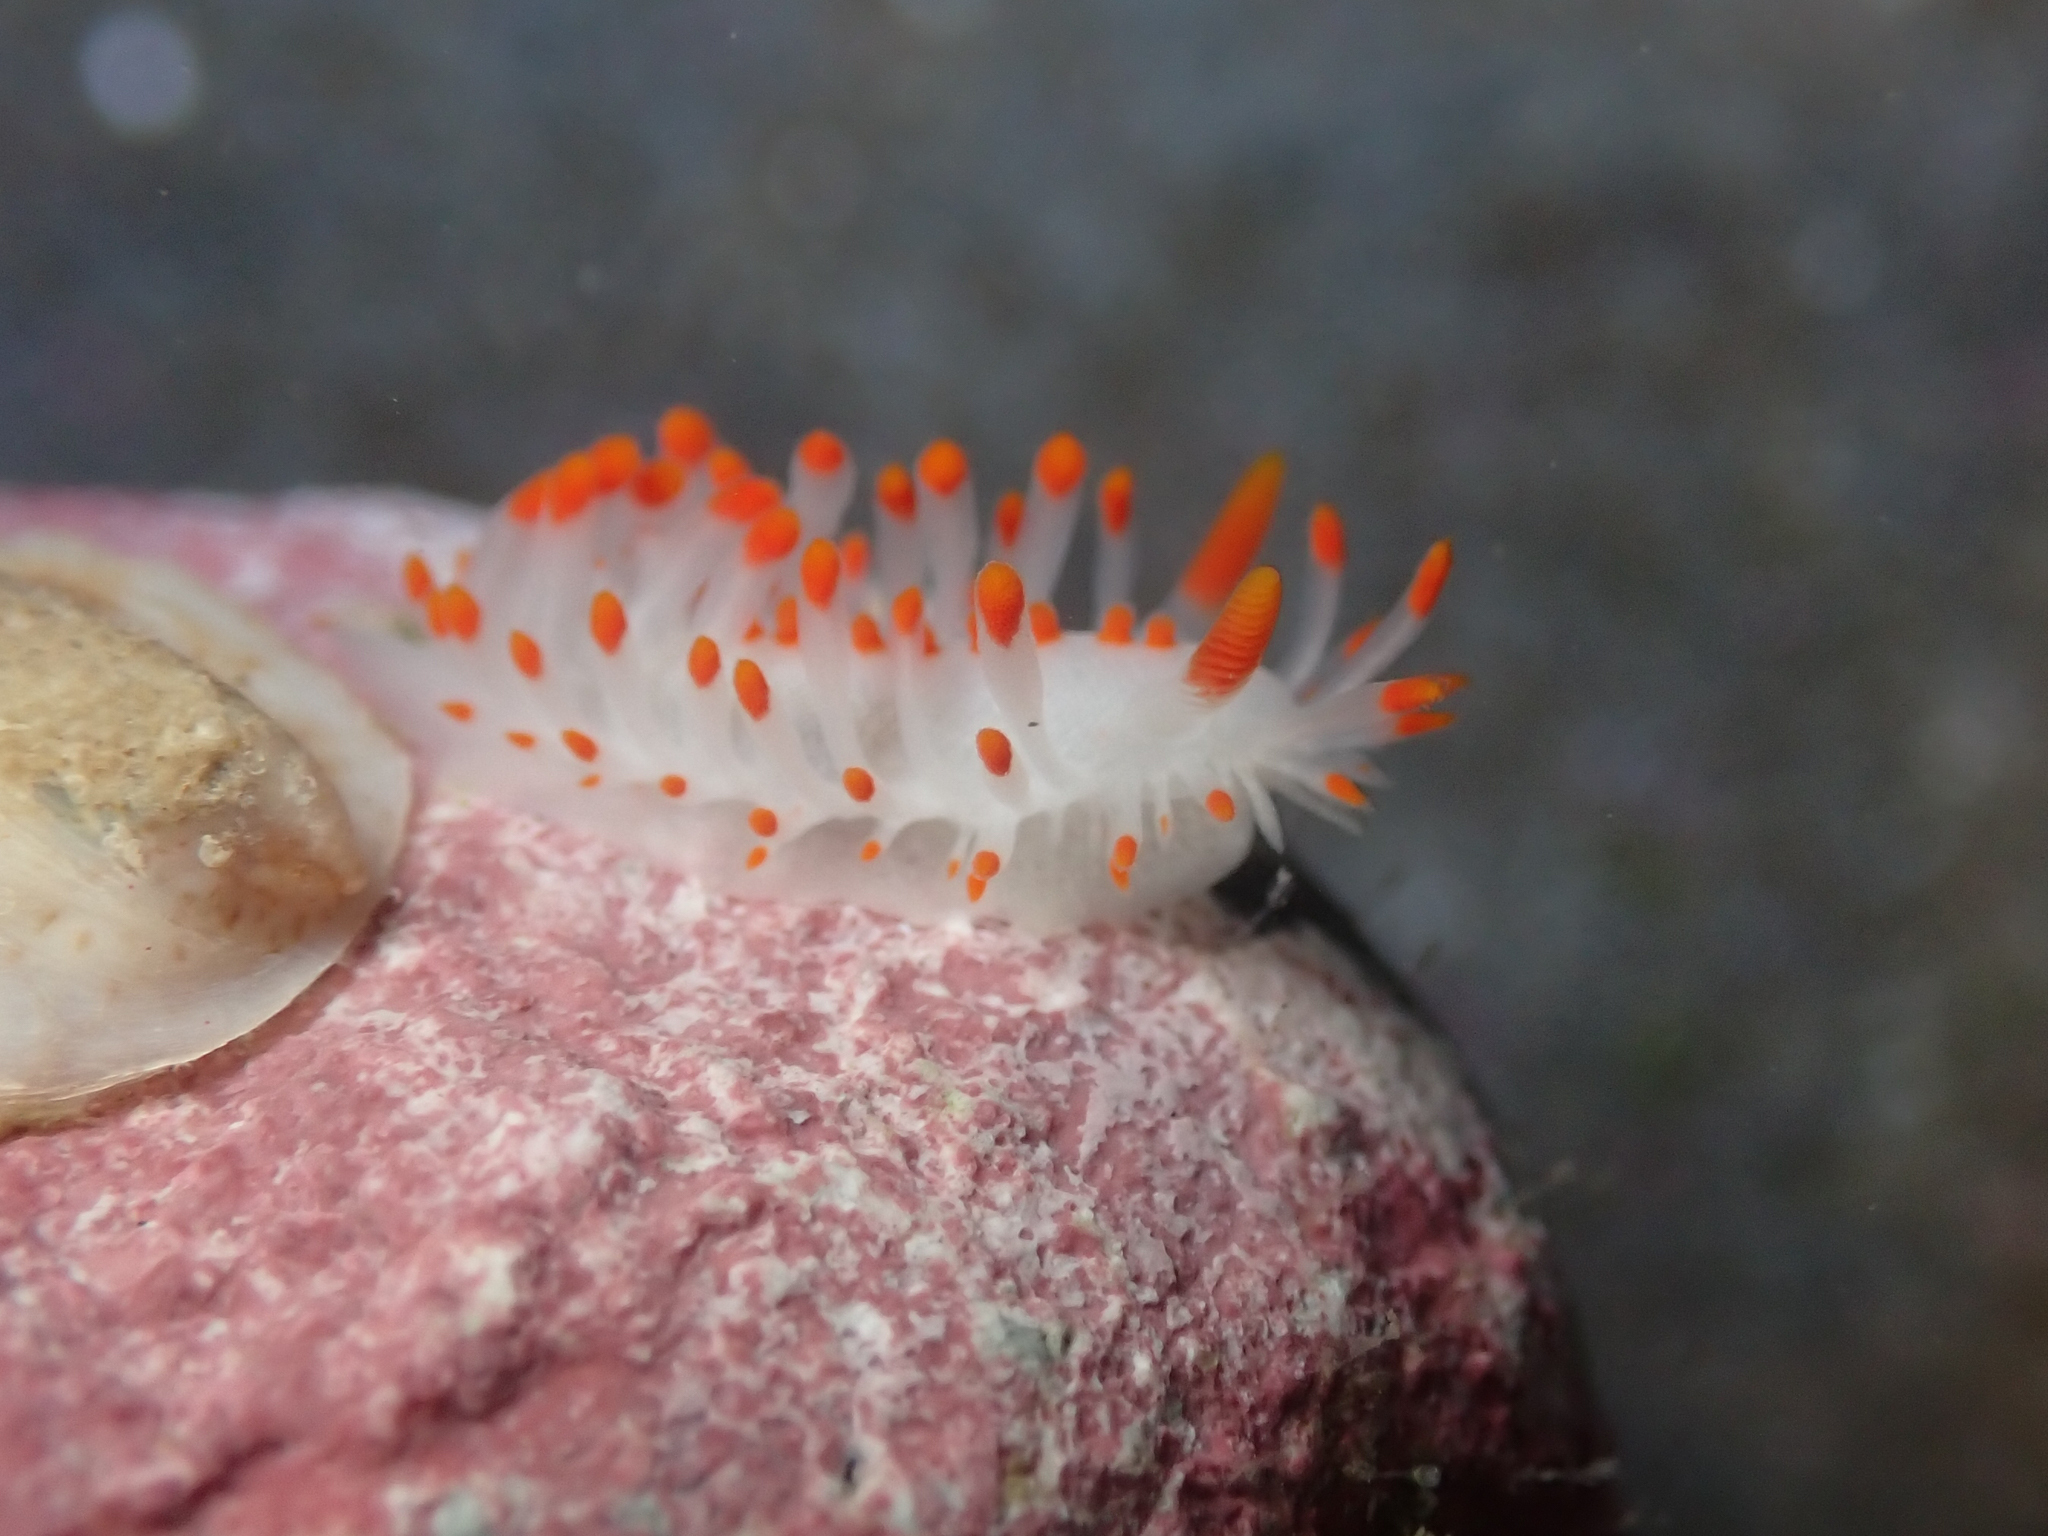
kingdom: Animalia
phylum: Mollusca
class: Gastropoda
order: Nudibranchia
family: Polyceridae
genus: Limacia
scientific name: Limacia mcdonaldi
